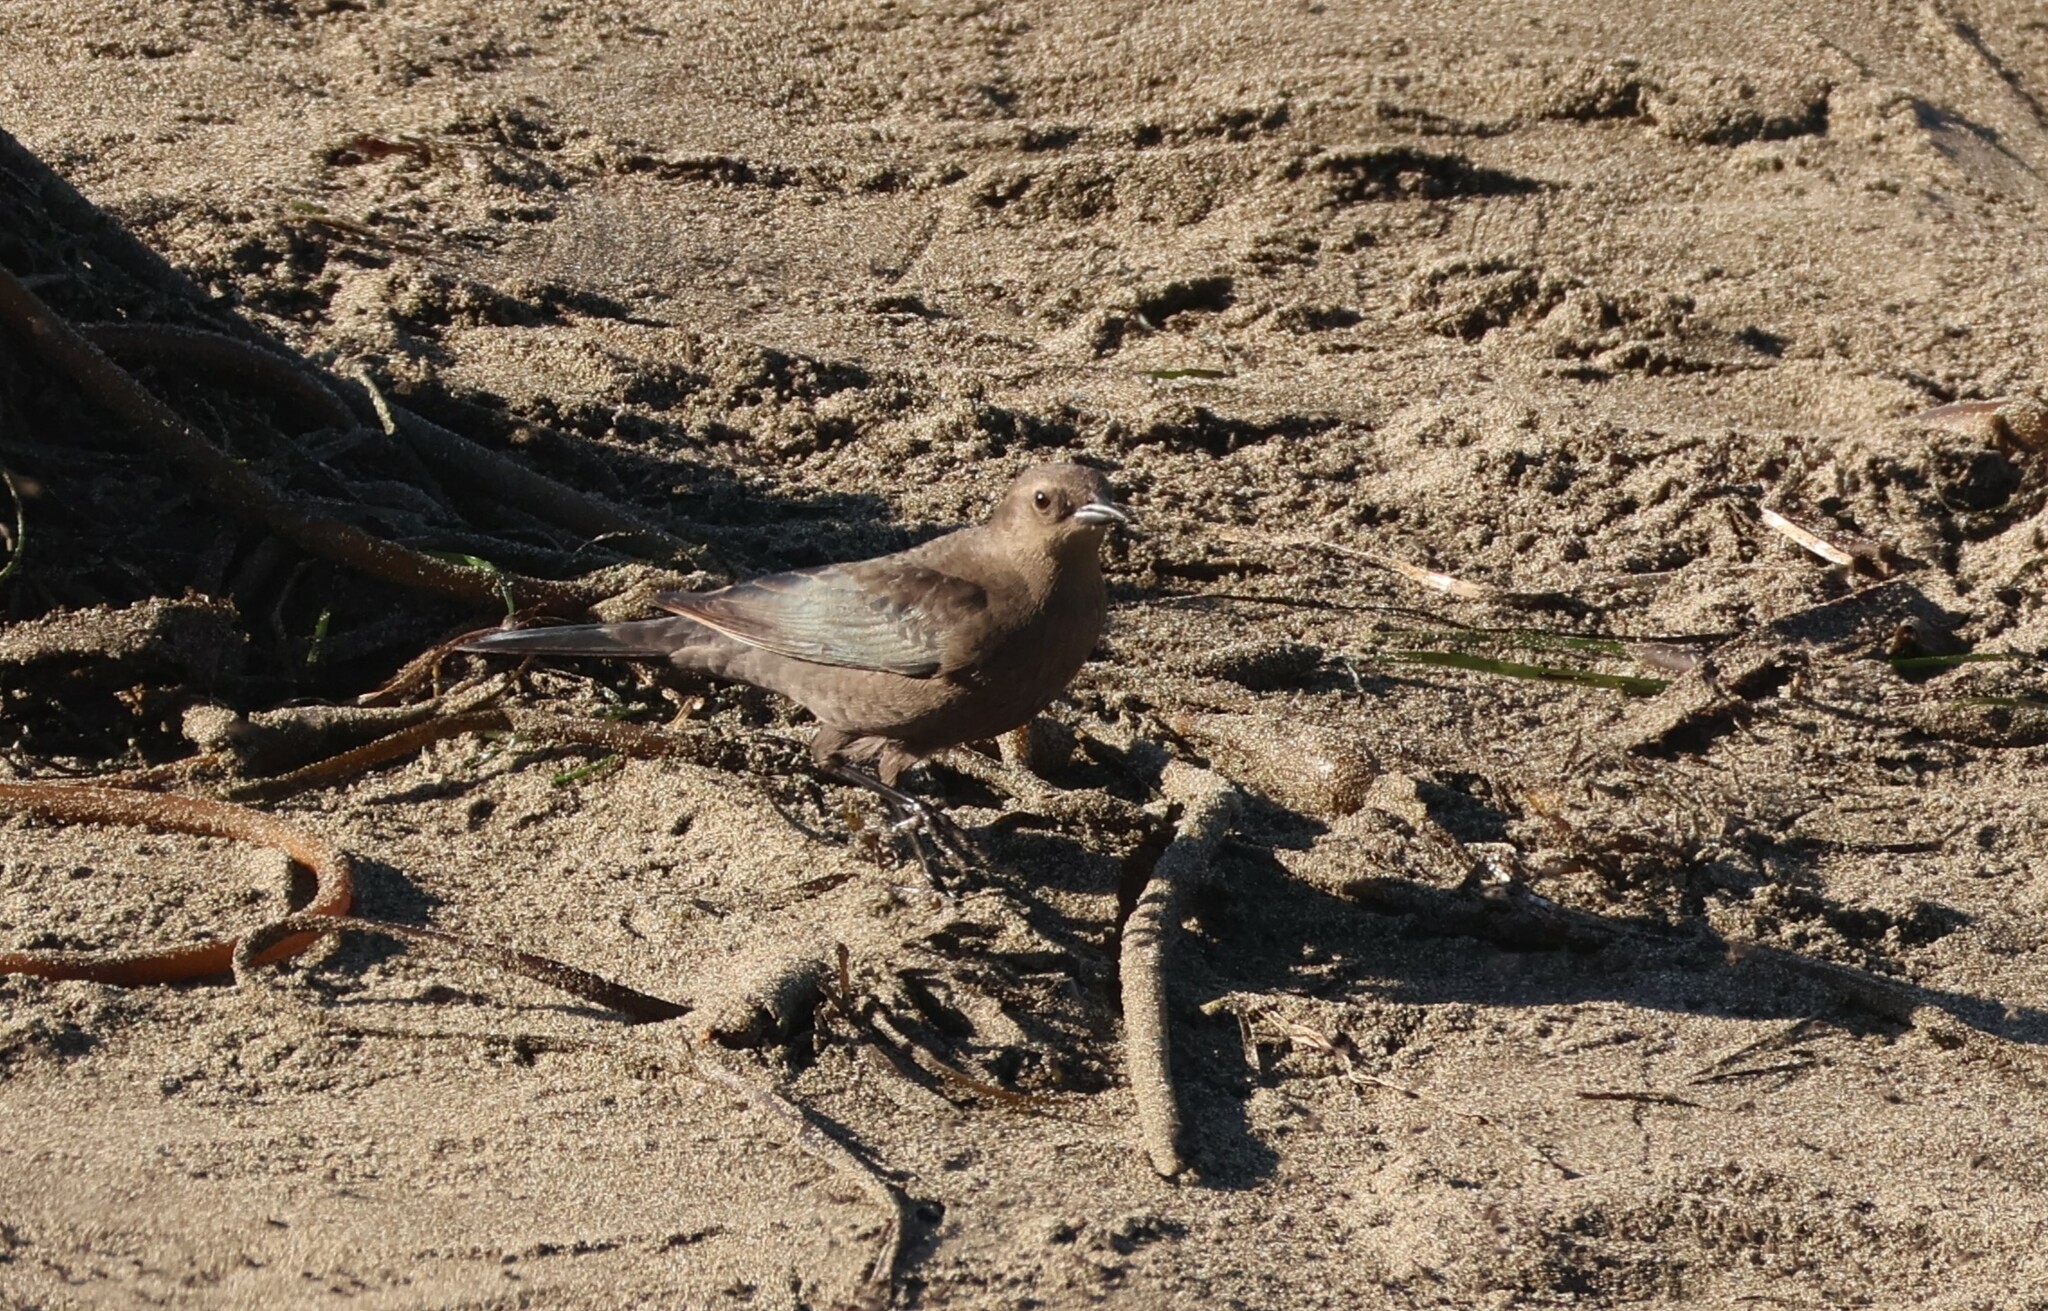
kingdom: Animalia
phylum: Chordata
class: Aves
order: Passeriformes
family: Icteridae
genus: Euphagus
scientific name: Euphagus cyanocephalus
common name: Brewer's blackbird
